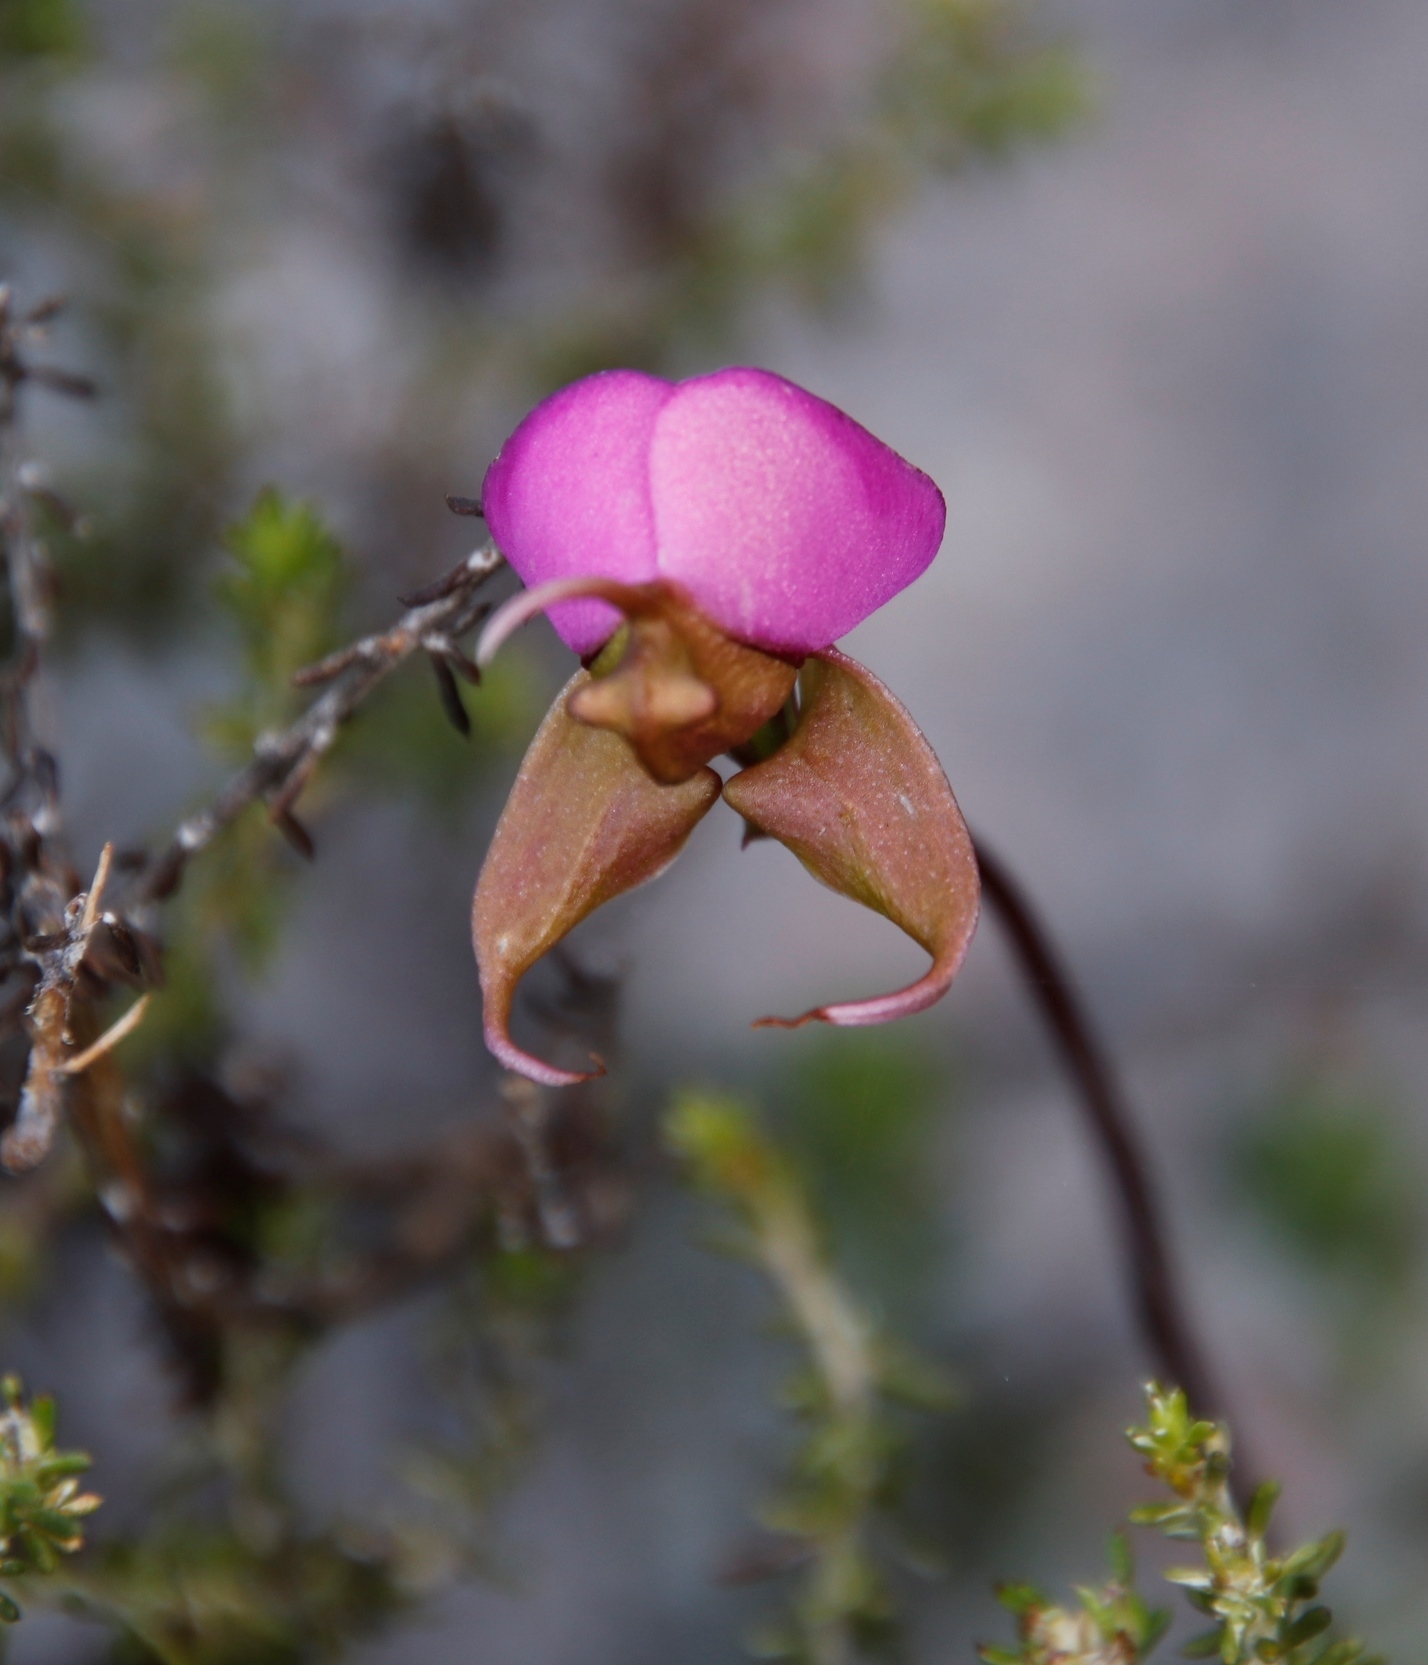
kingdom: Plantae
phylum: Tracheophyta
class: Liliopsida
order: Asparagales
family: Orchidaceae
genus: Disperis
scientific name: Disperis capensis
